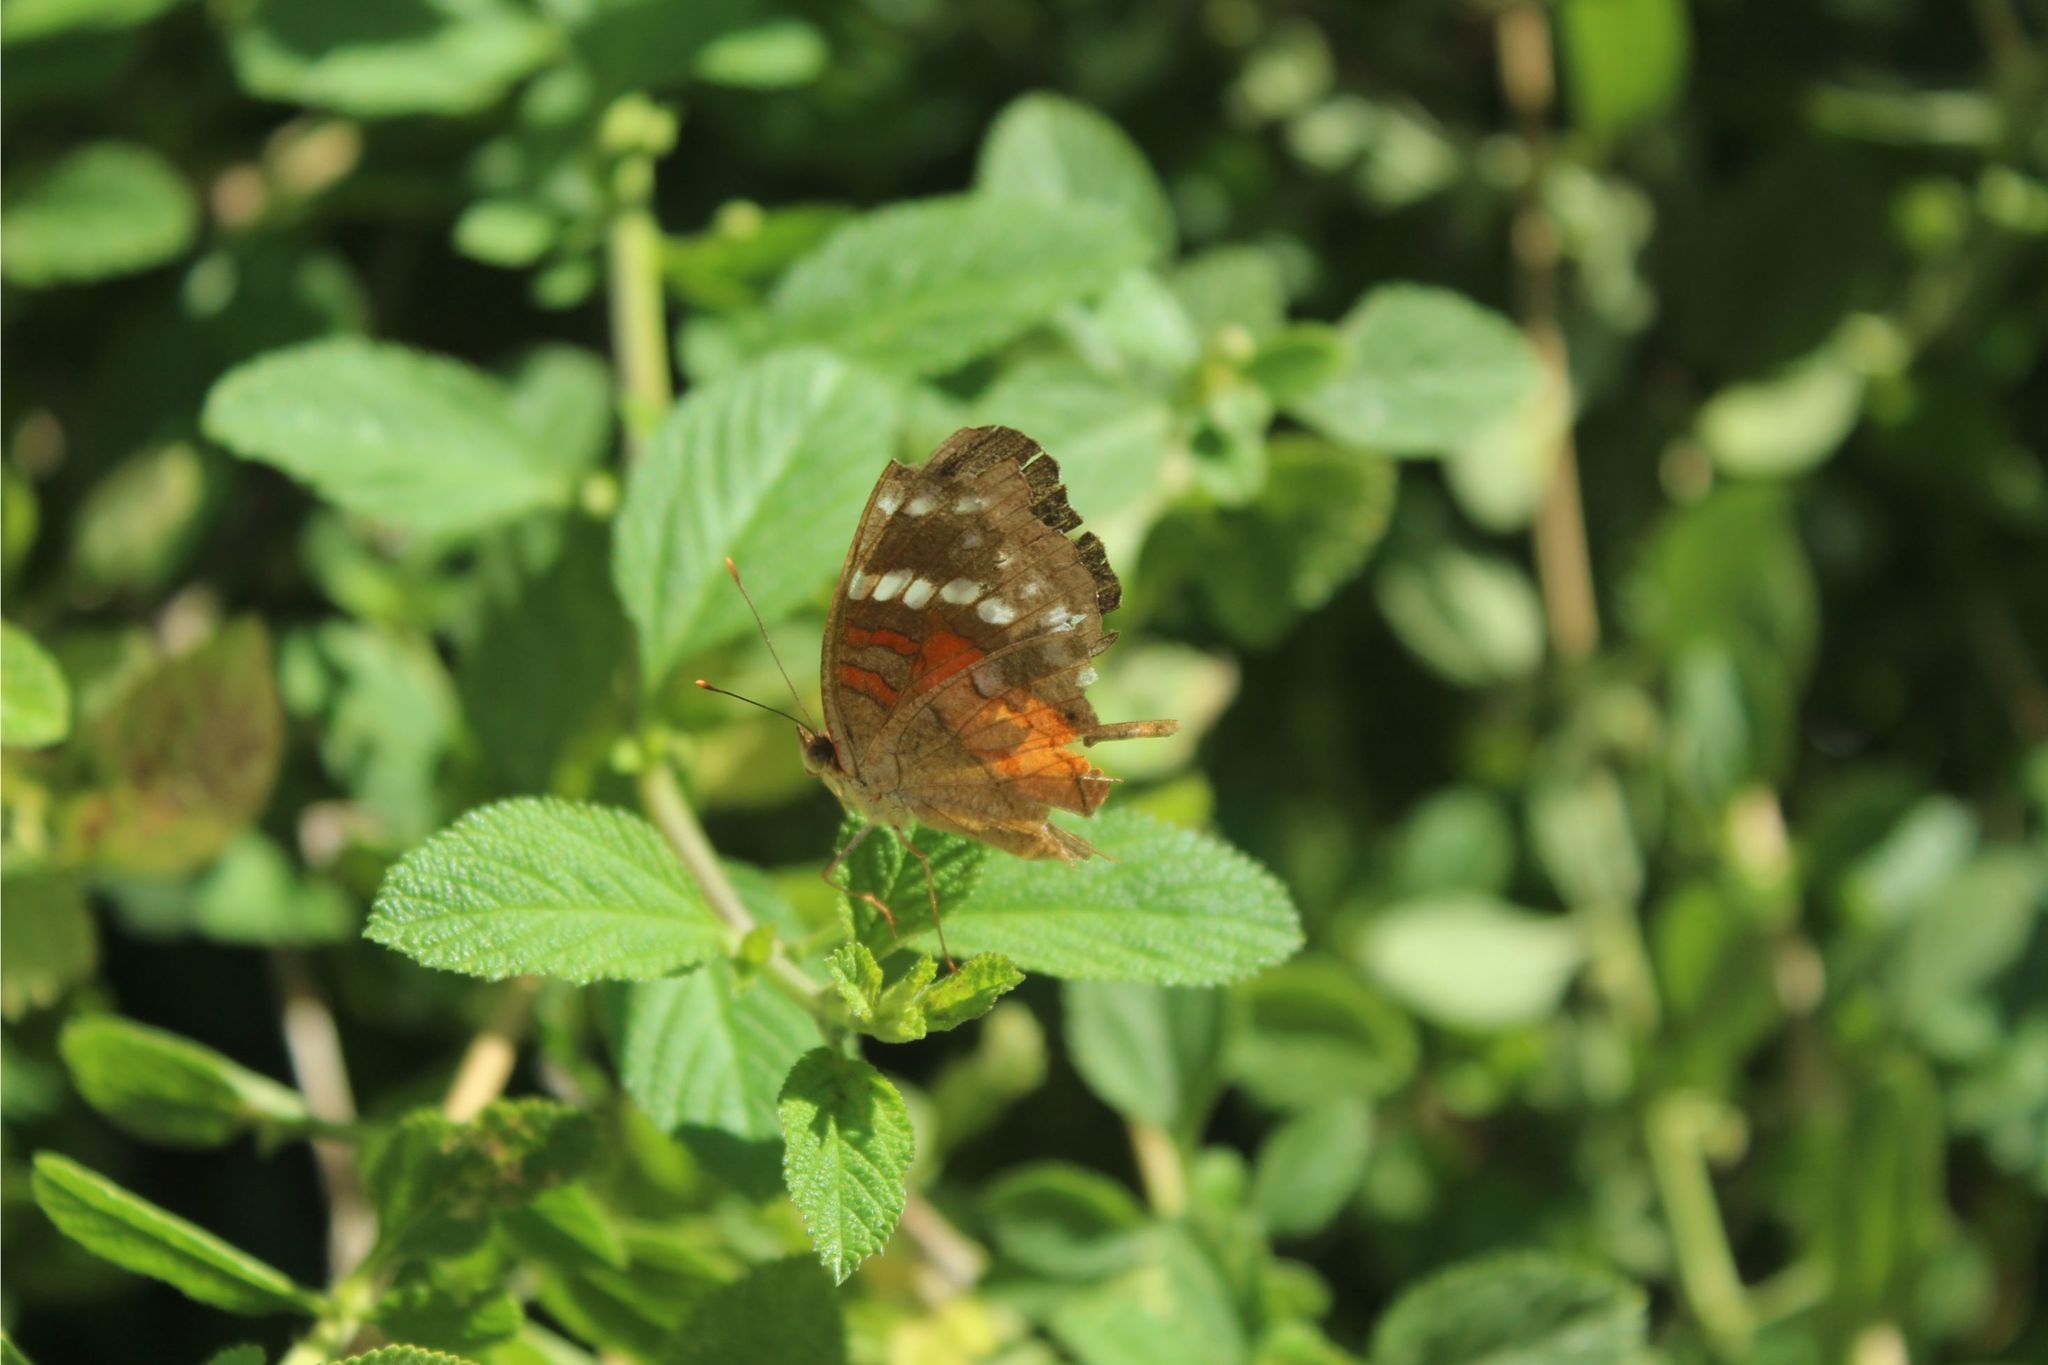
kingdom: Animalia
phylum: Arthropoda
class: Insecta
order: Lepidoptera
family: Nymphalidae
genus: Anartia
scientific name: Anartia amathea
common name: Red peacock
